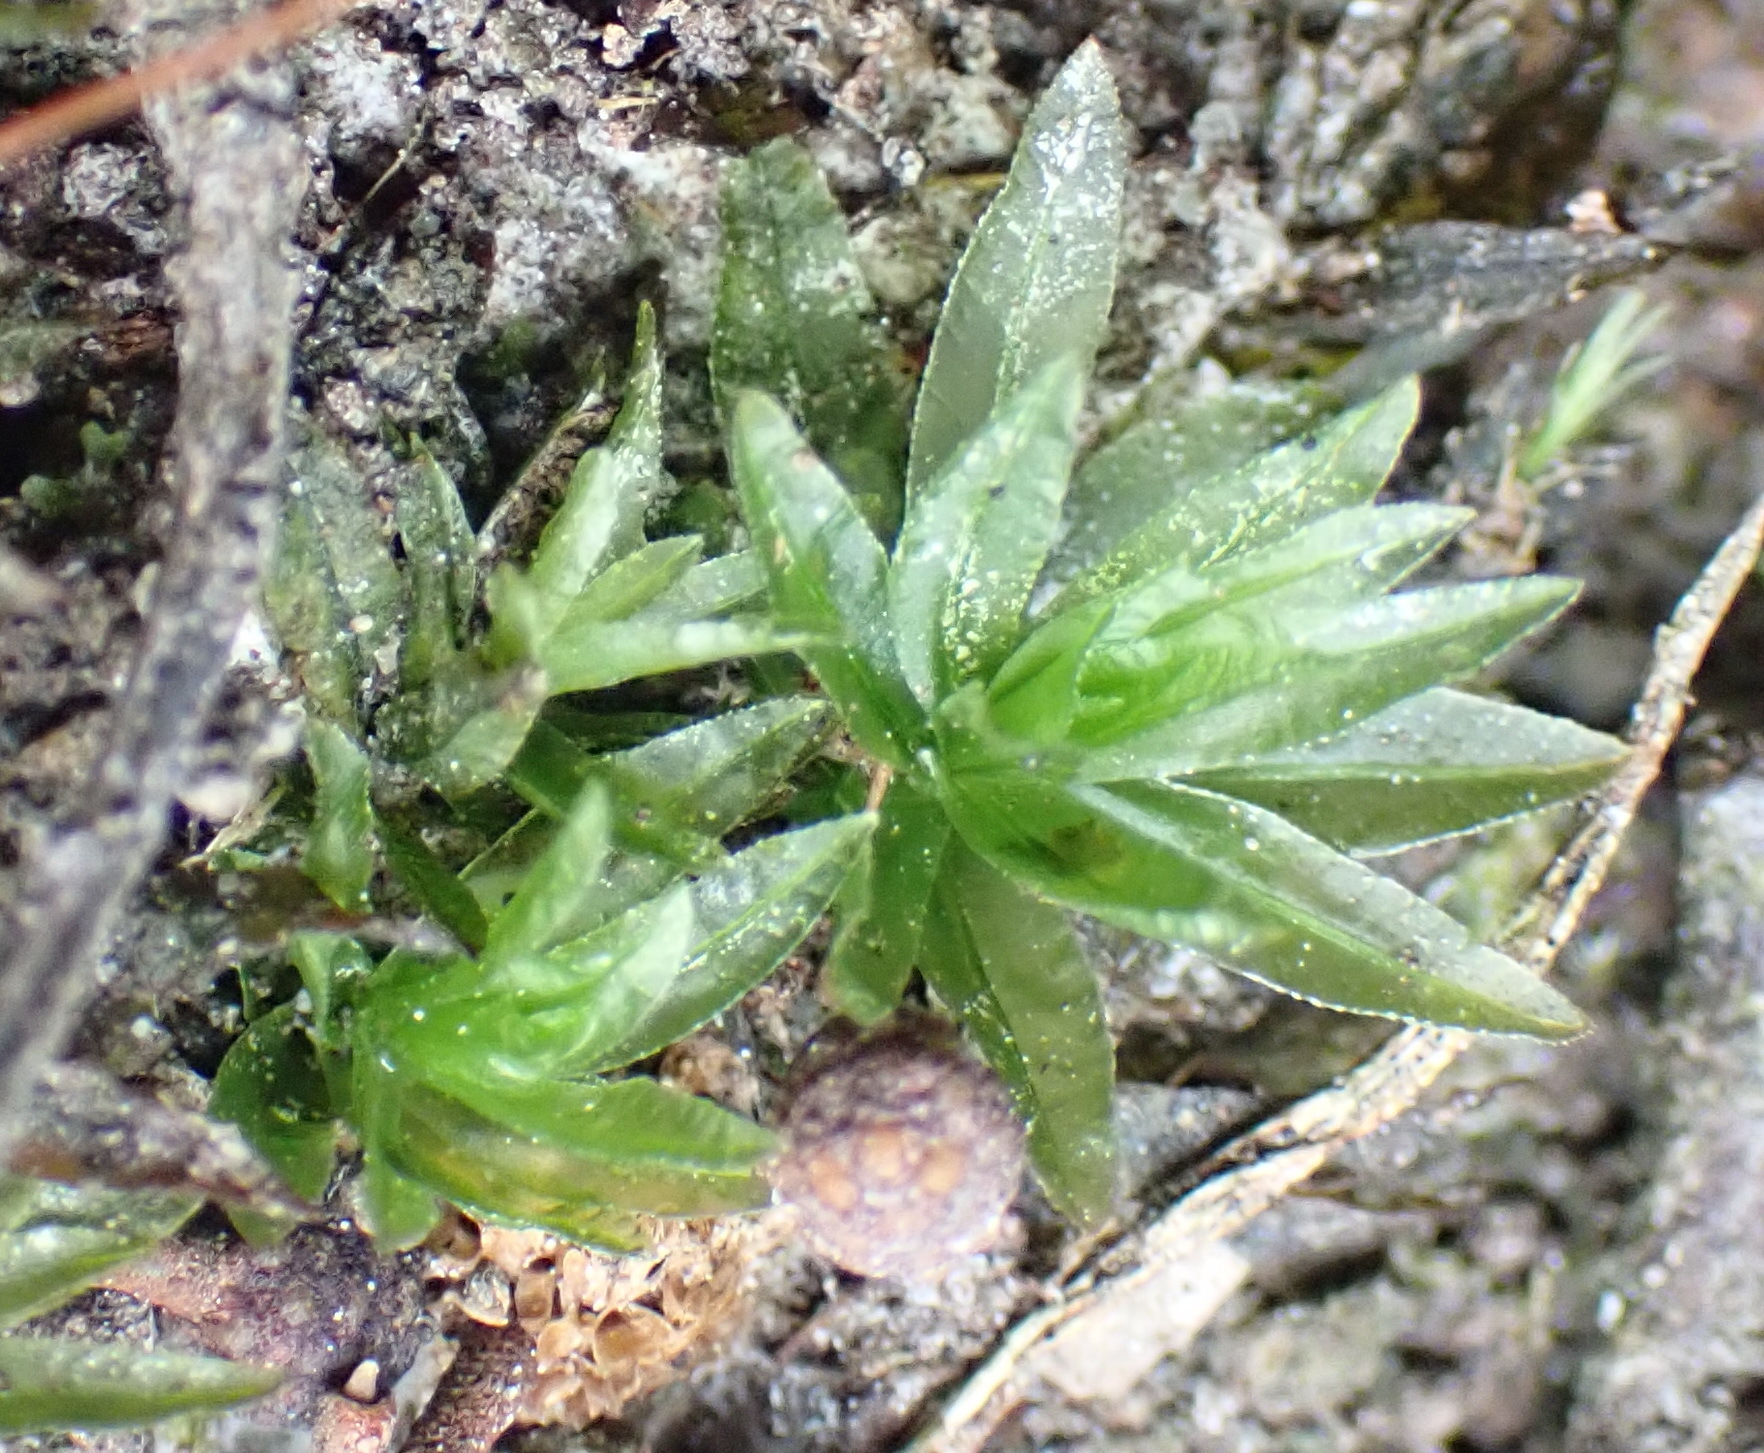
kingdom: Plantae
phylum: Bryophyta
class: Polytrichopsida
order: Polytrichales
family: Polytrichaceae
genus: Atrichum
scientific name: Atrichum androgynum
